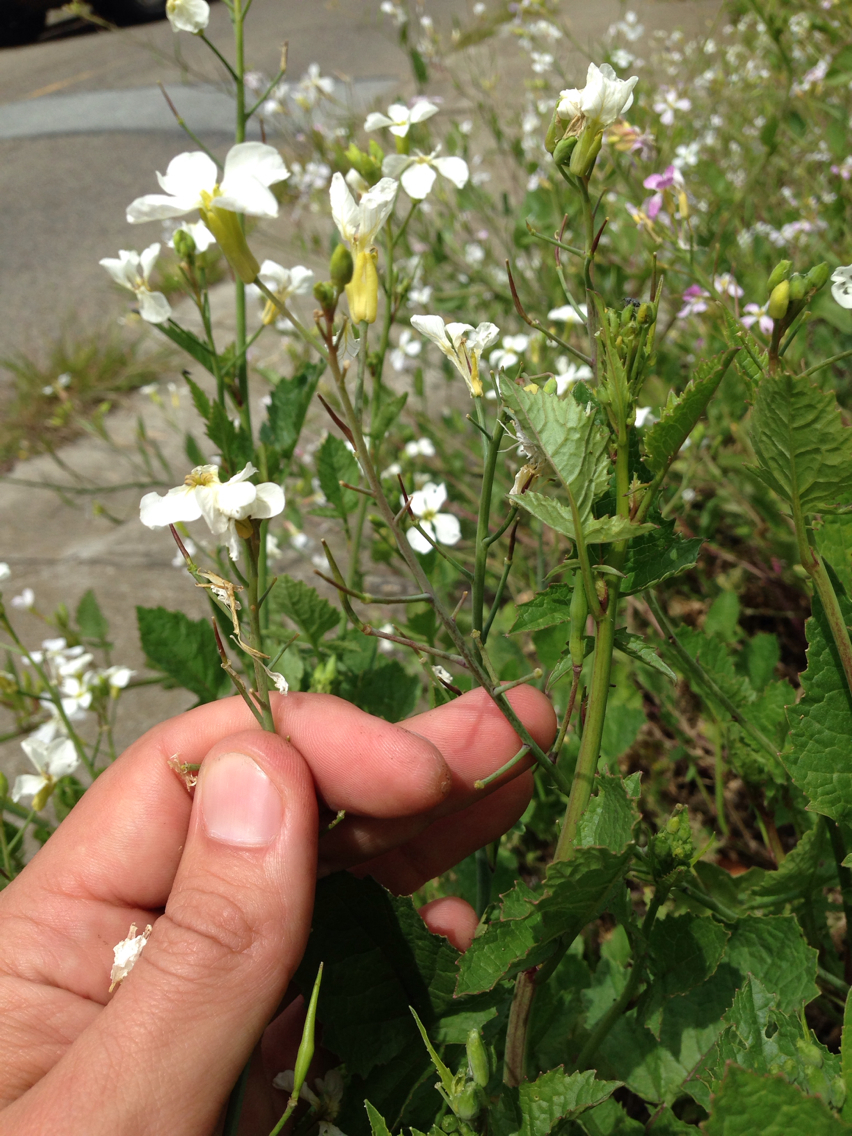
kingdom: Plantae
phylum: Tracheophyta
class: Magnoliopsida
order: Brassicales
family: Brassicaceae
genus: Raphanus
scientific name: Raphanus raphanistrum
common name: Wild radish
